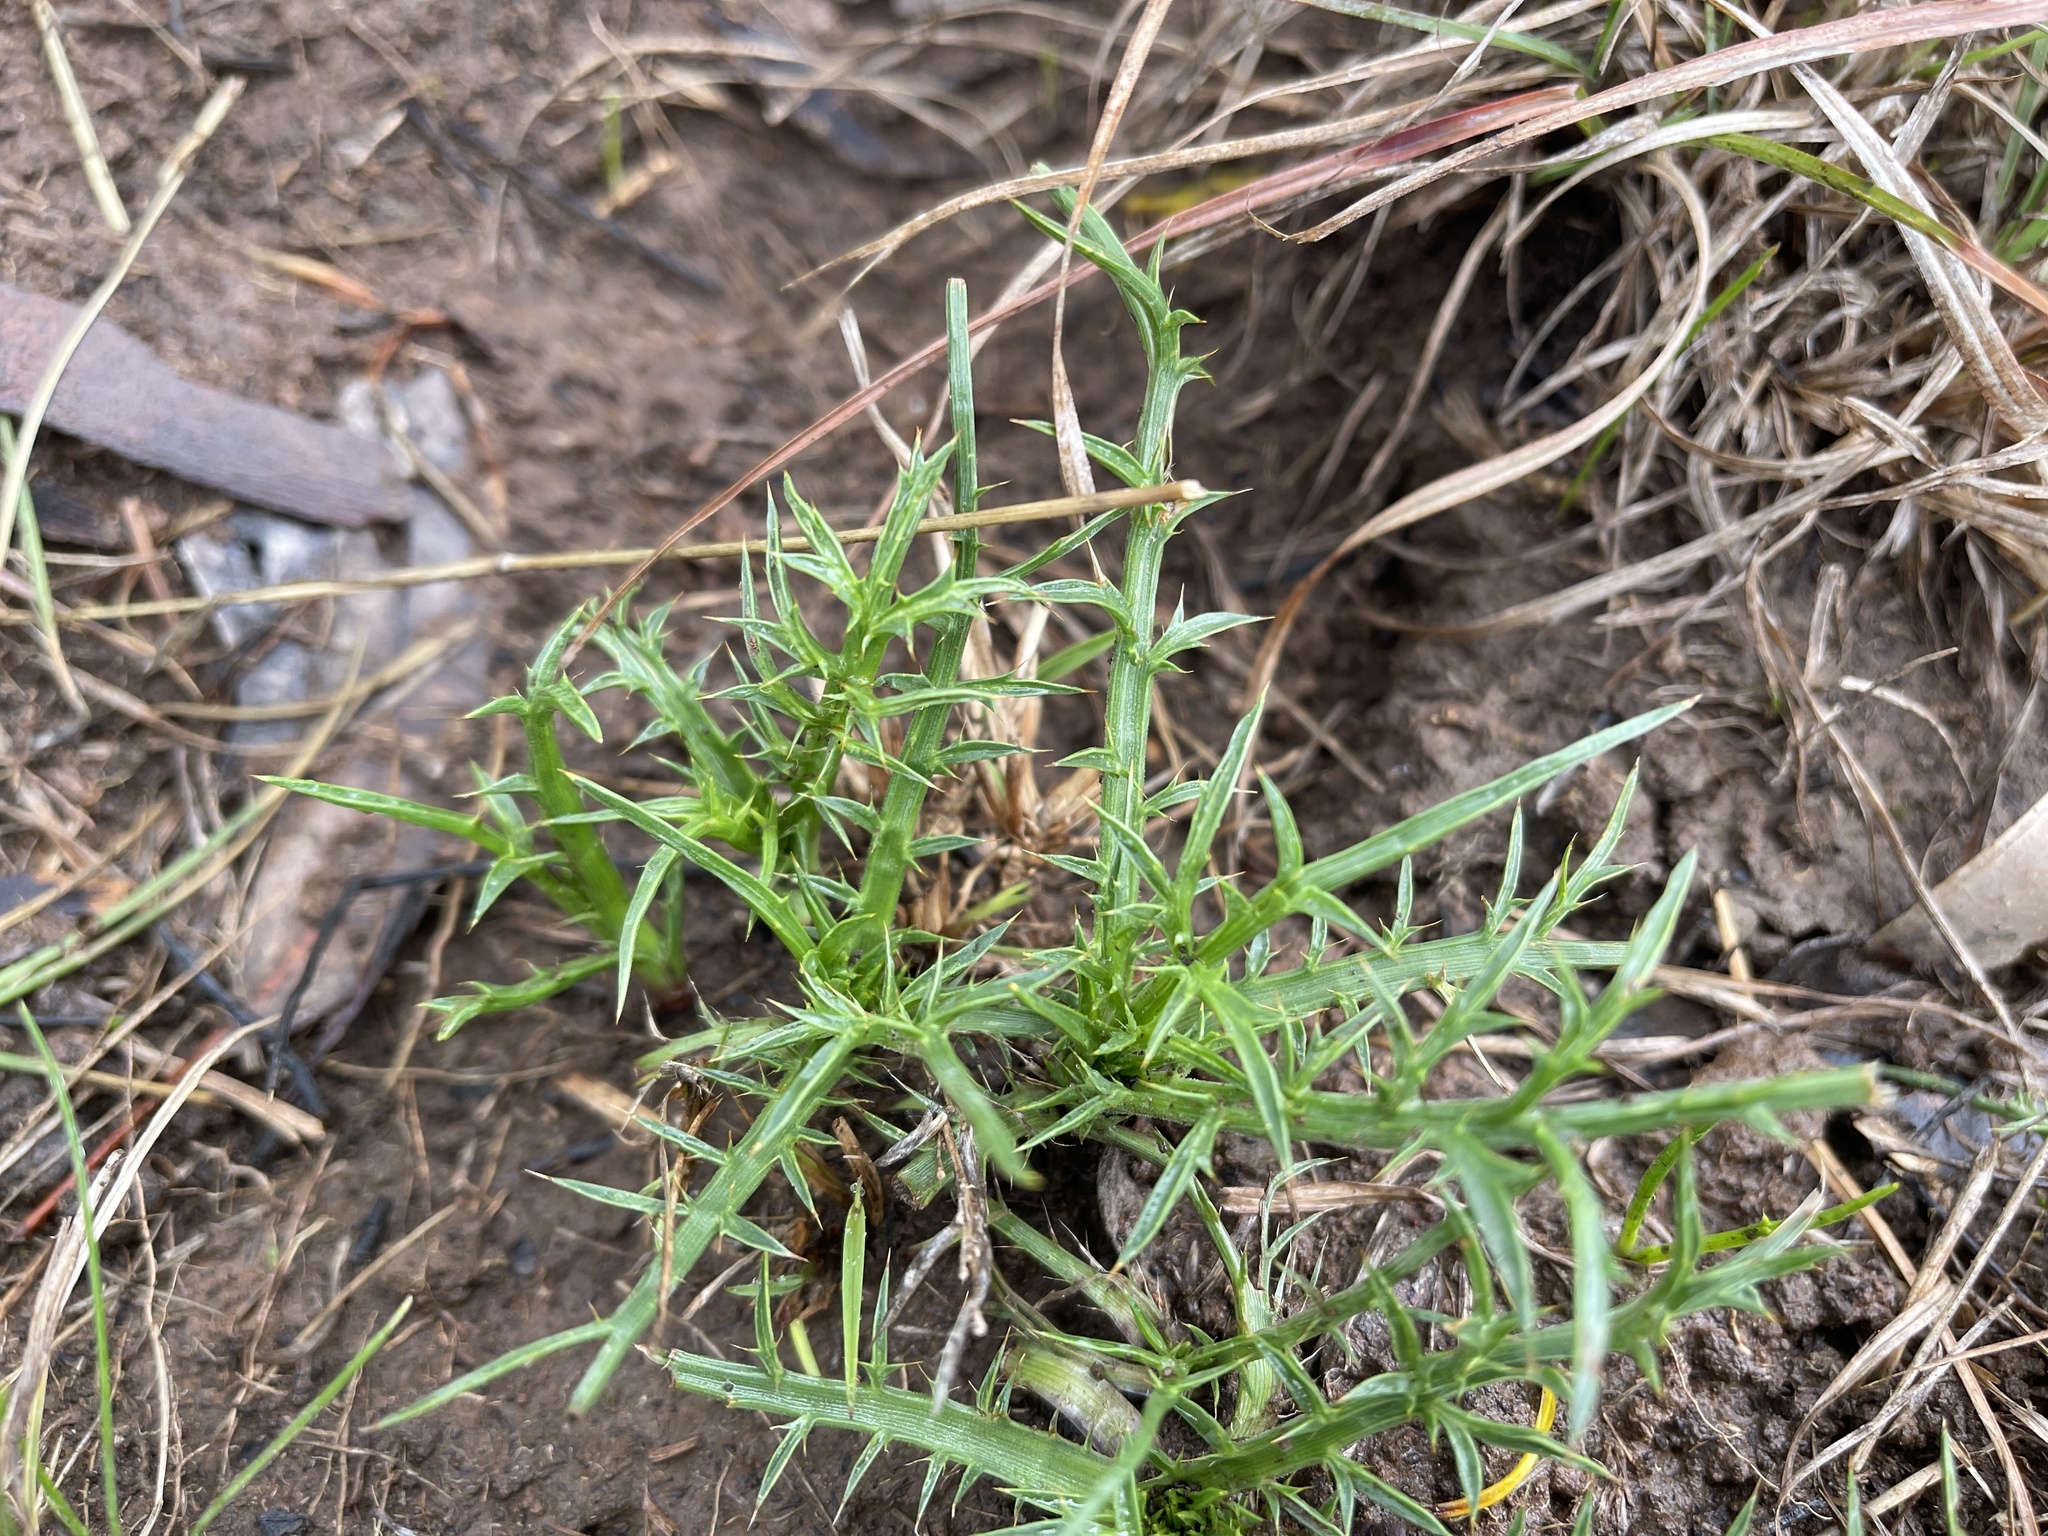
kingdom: Plantae
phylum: Tracheophyta
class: Magnoliopsida
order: Apiales
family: Apiaceae
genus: Eryngium
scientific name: Eryngium ovinum
